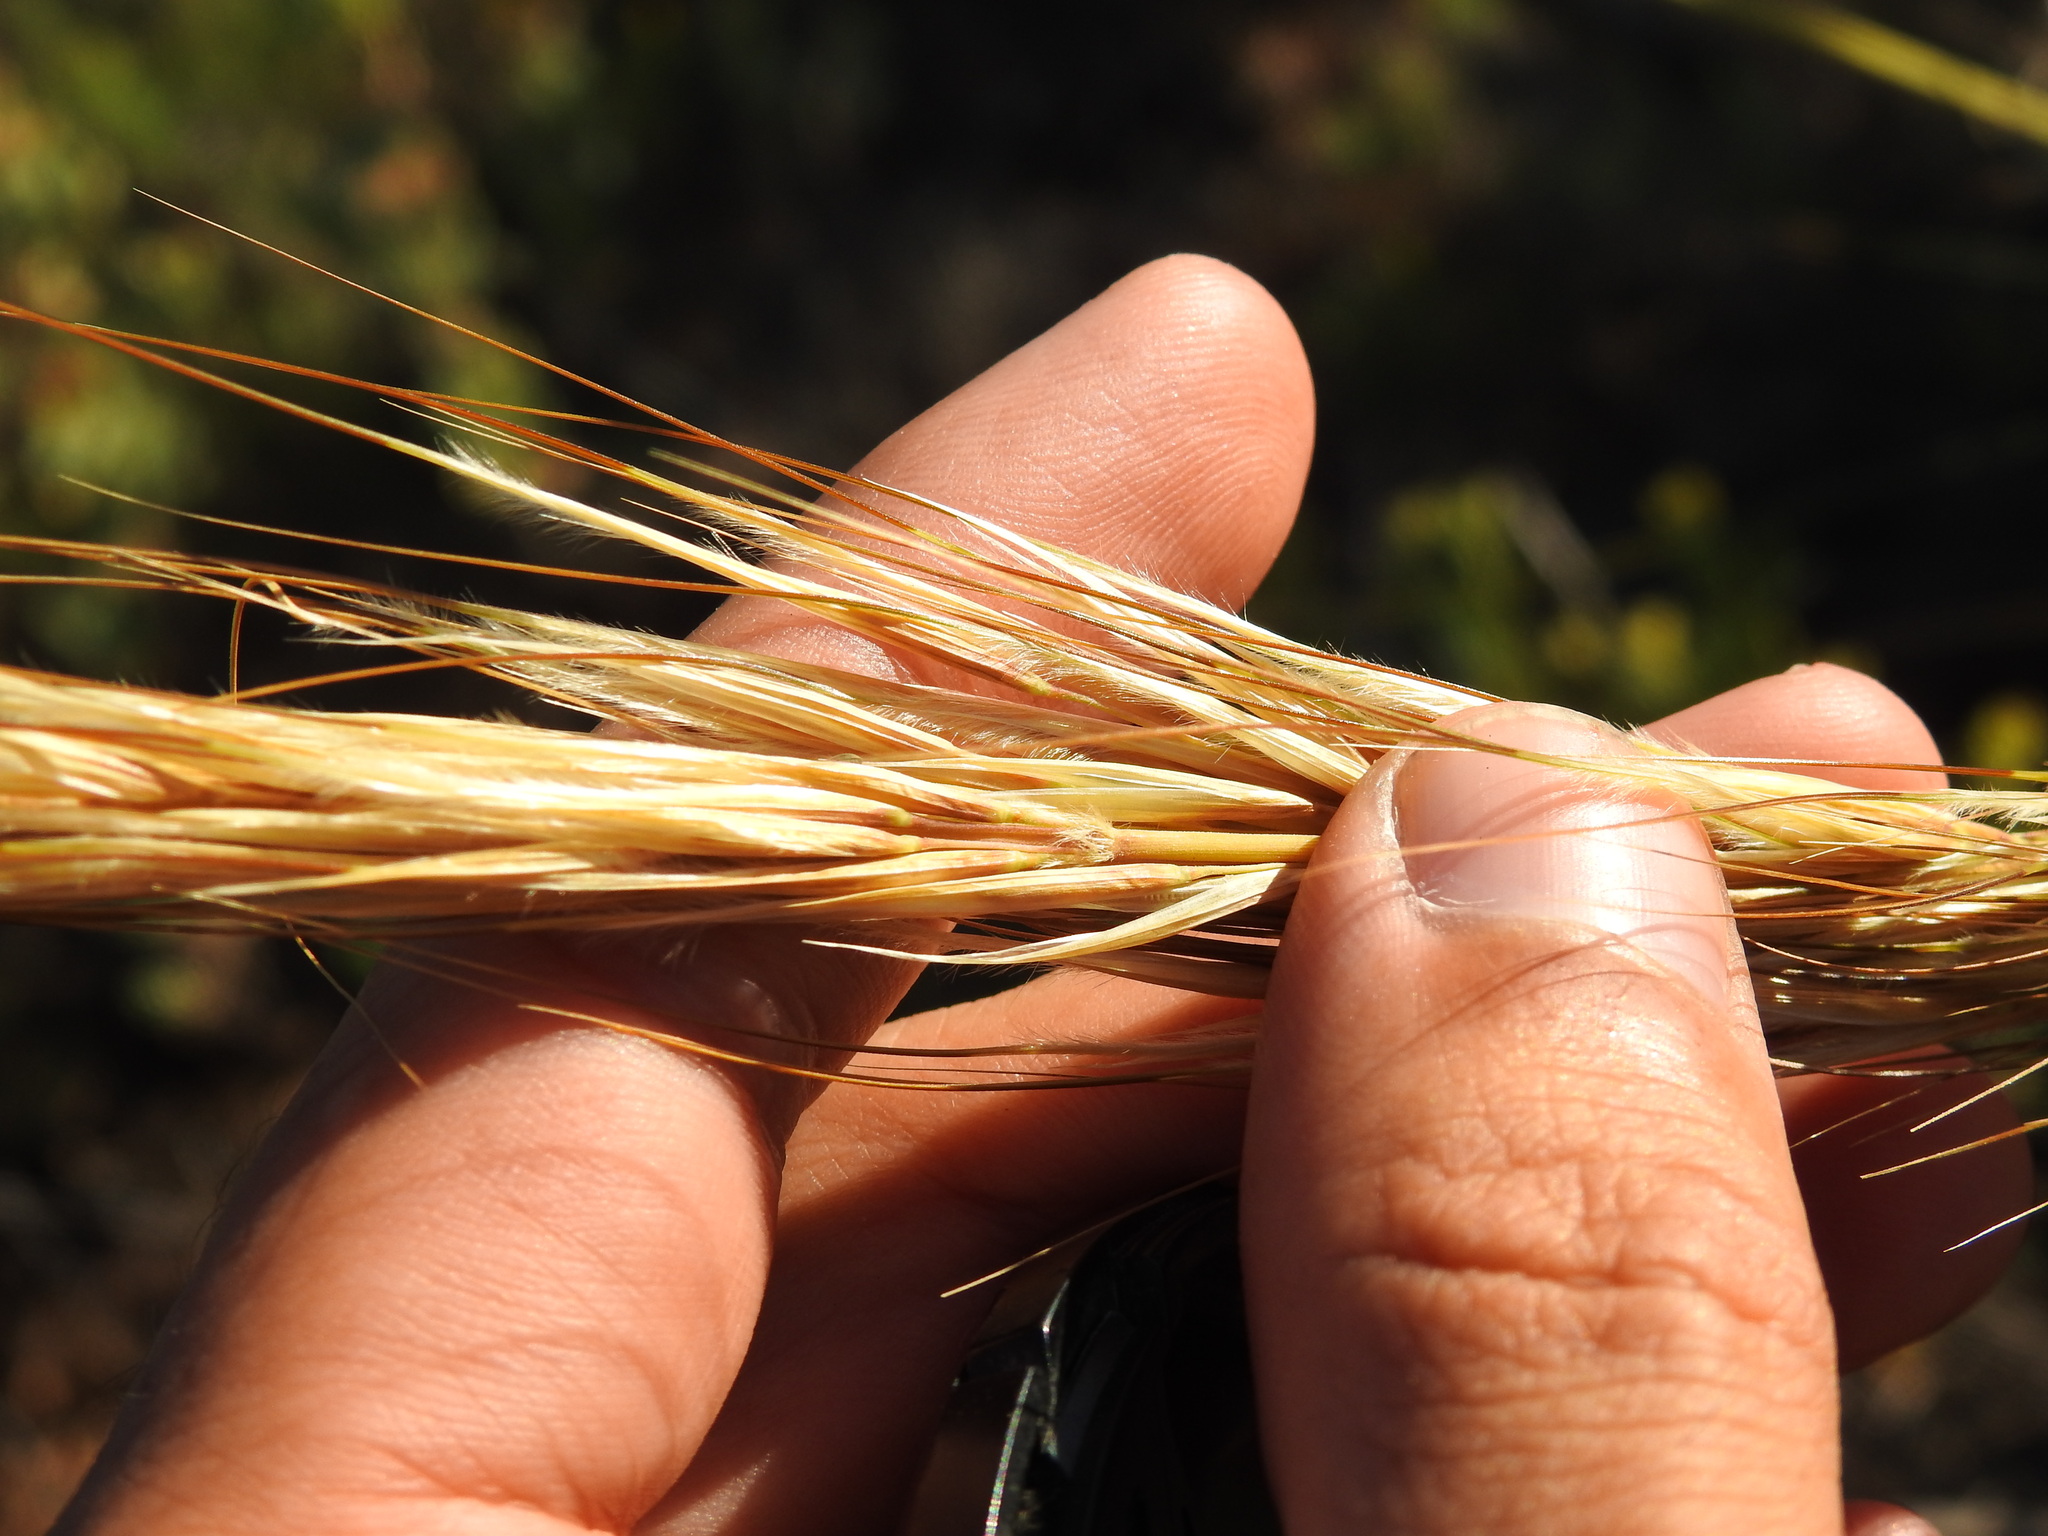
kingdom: Plantae
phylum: Tracheophyta
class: Liliopsida
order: Poales
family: Poaceae
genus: Macrochloa
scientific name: Macrochloa tenacissima
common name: Alfa grass
